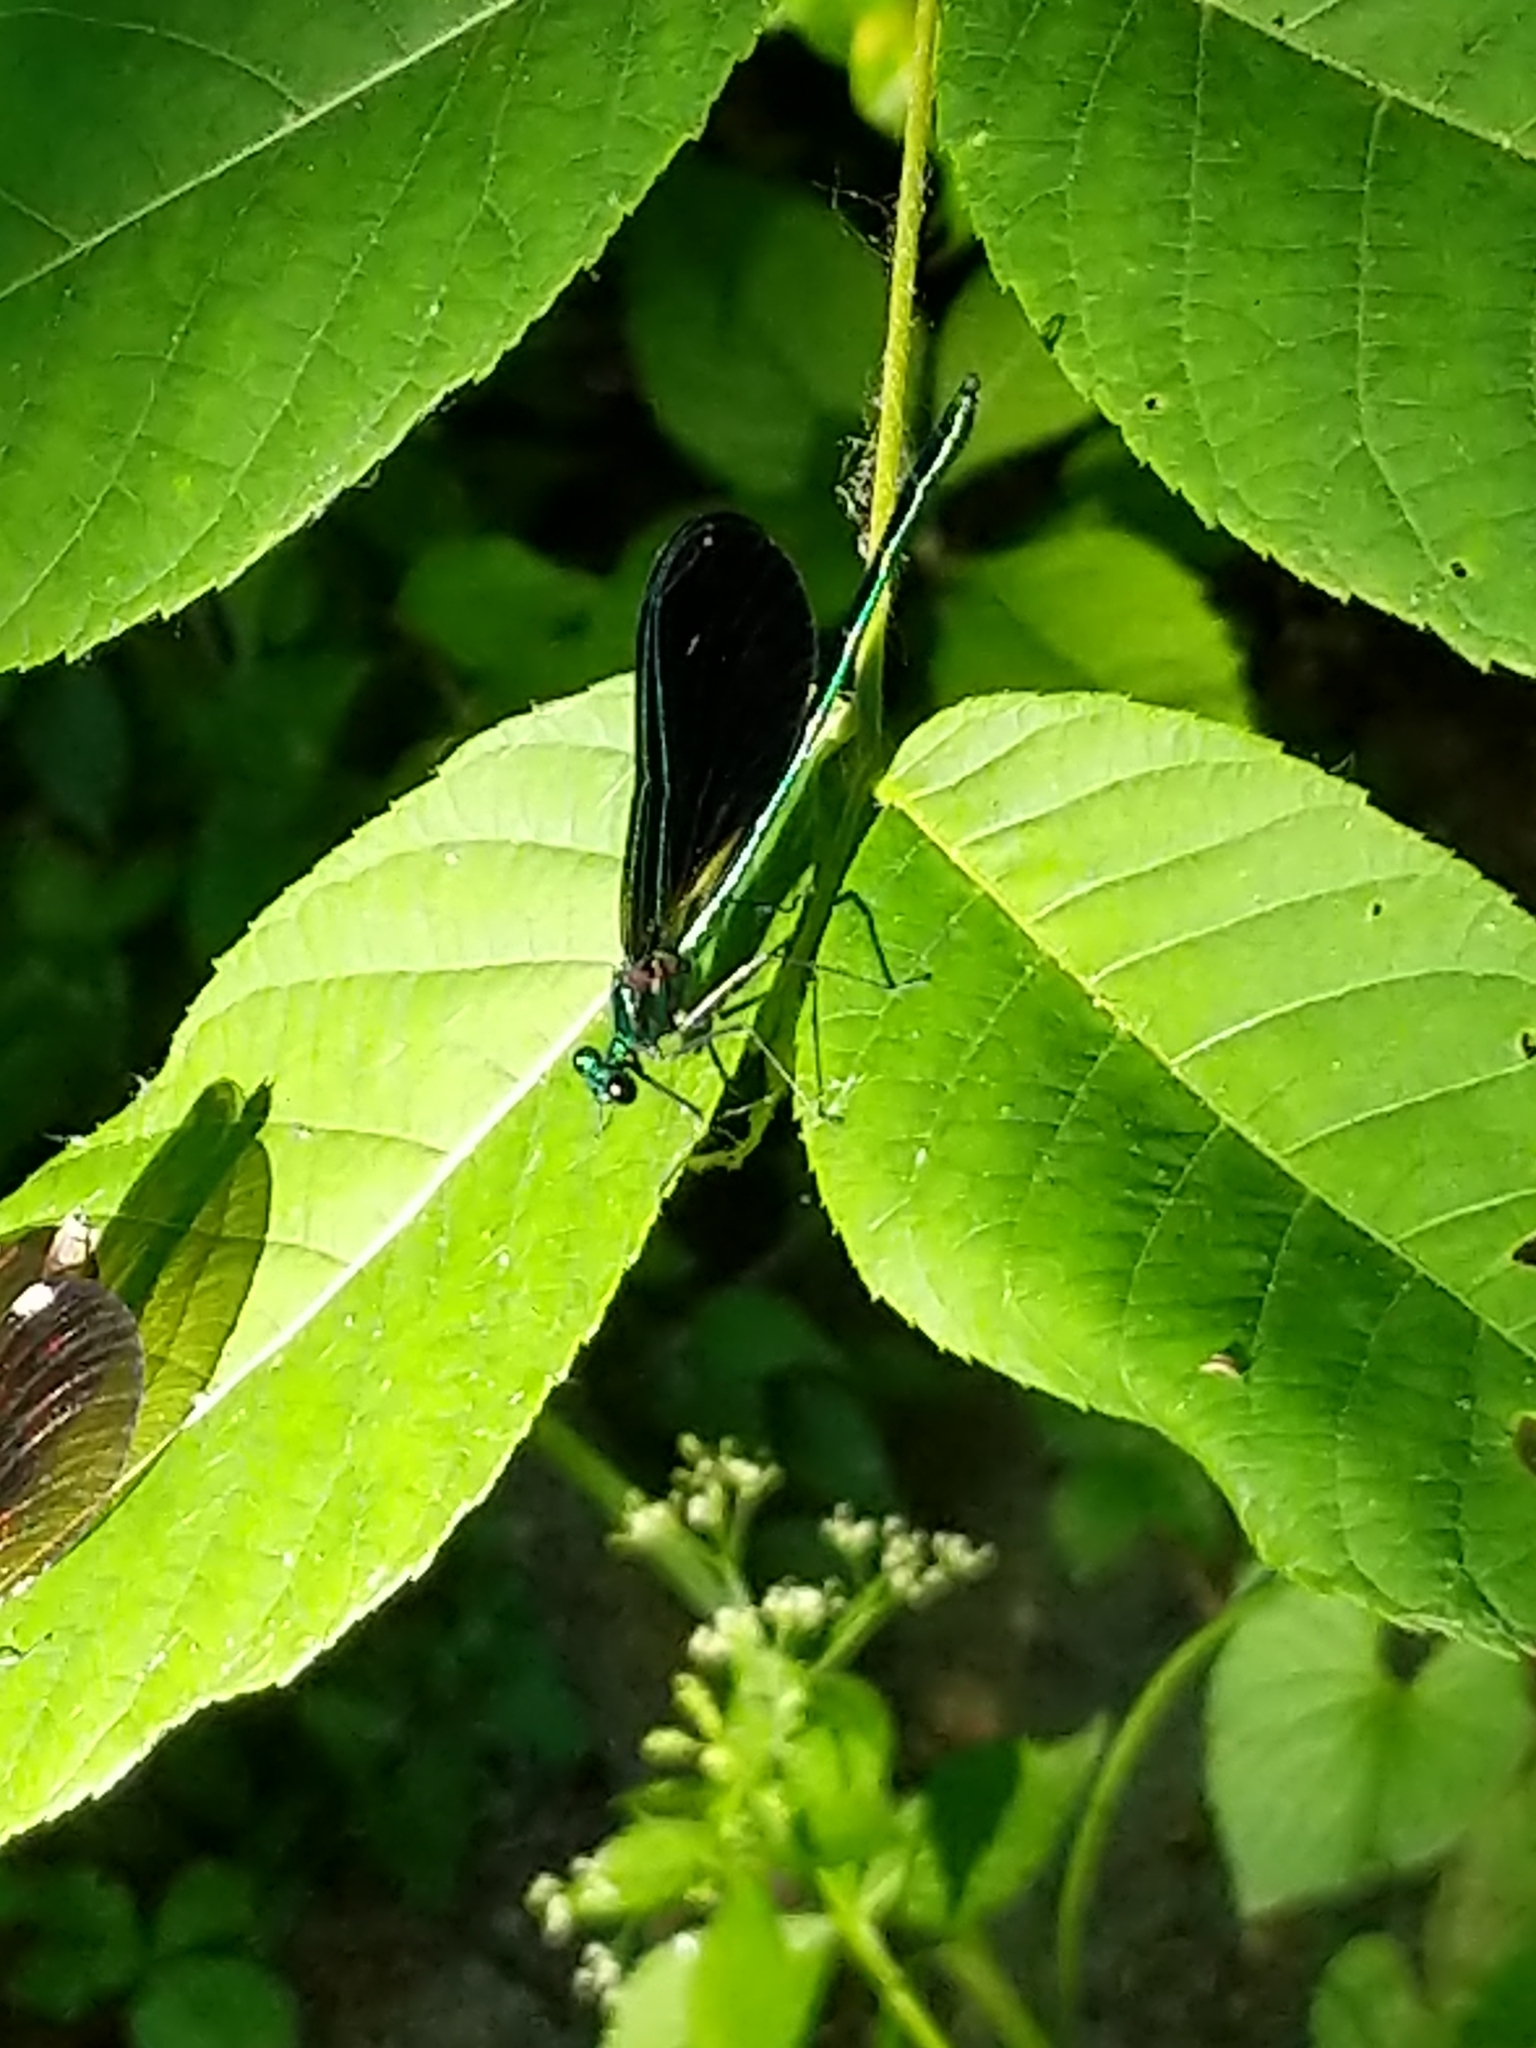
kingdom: Animalia
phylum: Arthropoda
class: Insecta
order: Odonata
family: Calopterygidae
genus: Calopteryx
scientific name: Calopteryx maculata
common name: Ebony jewelwing
